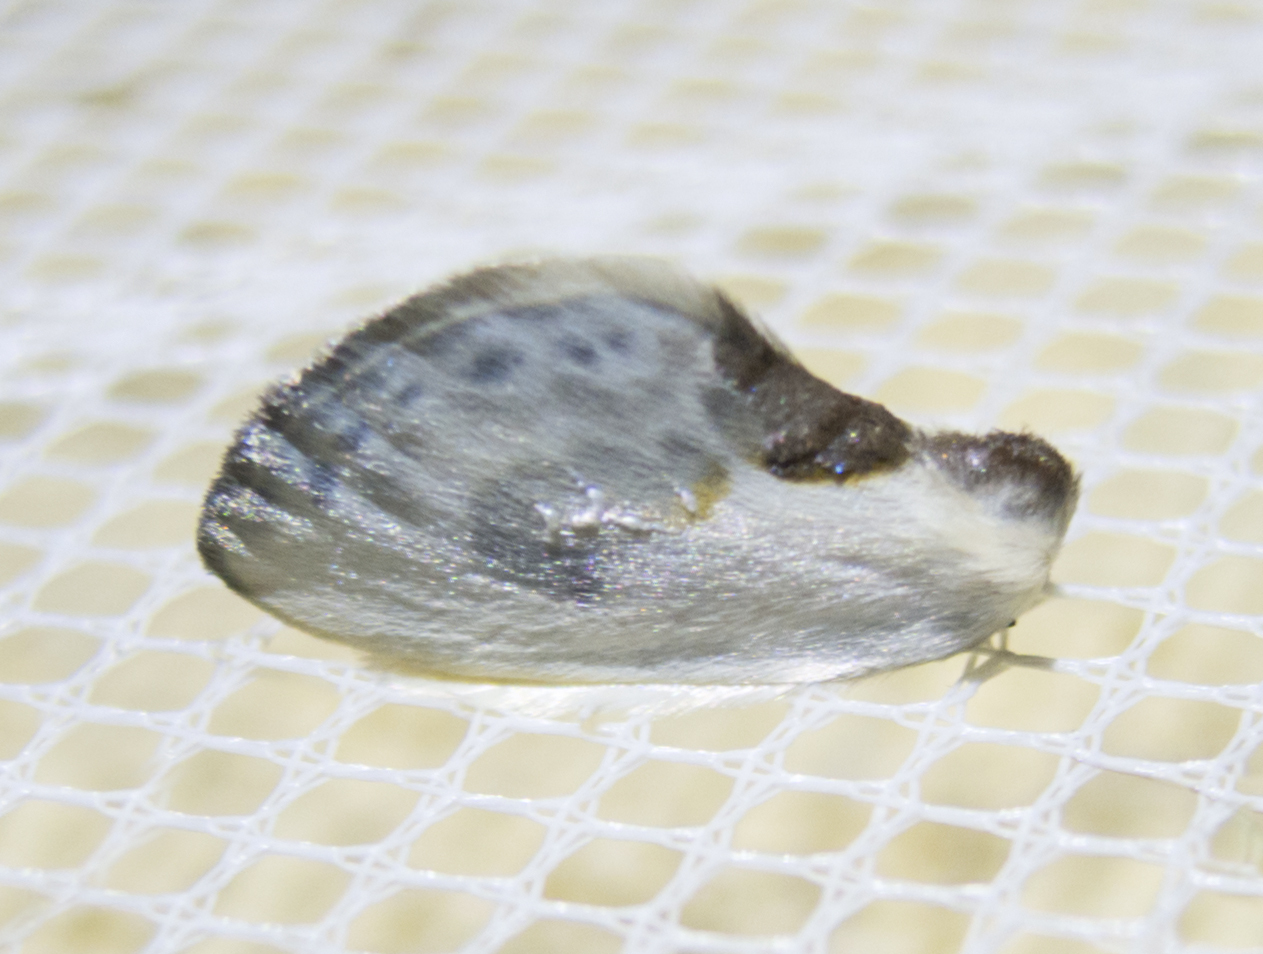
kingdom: Animalia
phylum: Arthropoda
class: Insecta
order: Lepidoptera
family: Drepanidae
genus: Cilix
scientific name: Cilix glaucata
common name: Chinese character
